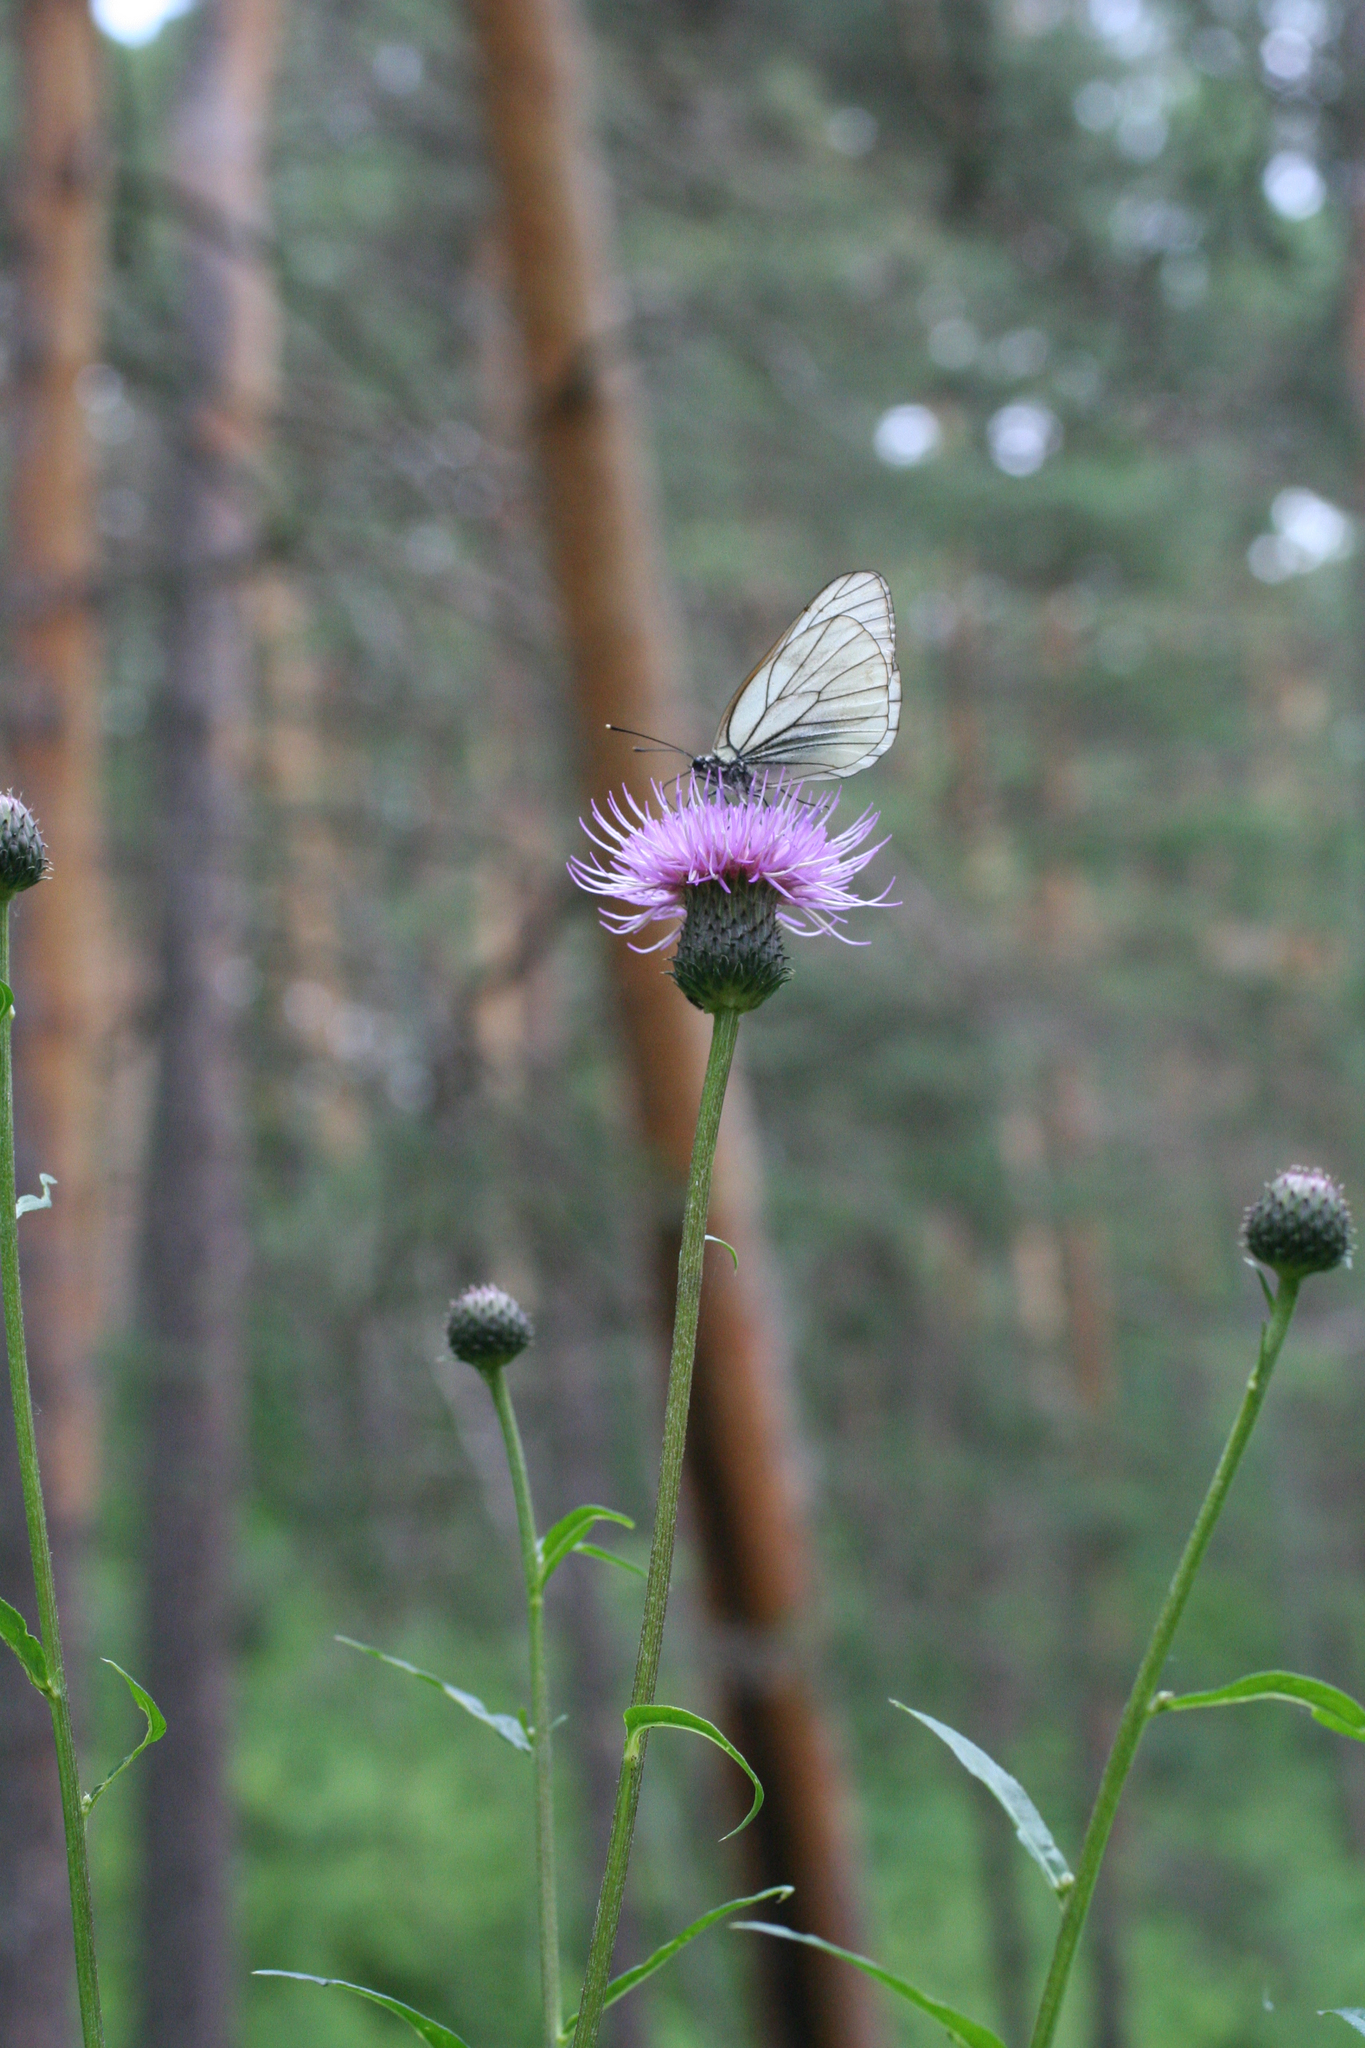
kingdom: Plantae
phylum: Tracheophyta
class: Magnoliopsida
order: Asterales
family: Asteraceae
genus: Cirsium
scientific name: Cirsium heterophyllum
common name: Melancholy thistle
